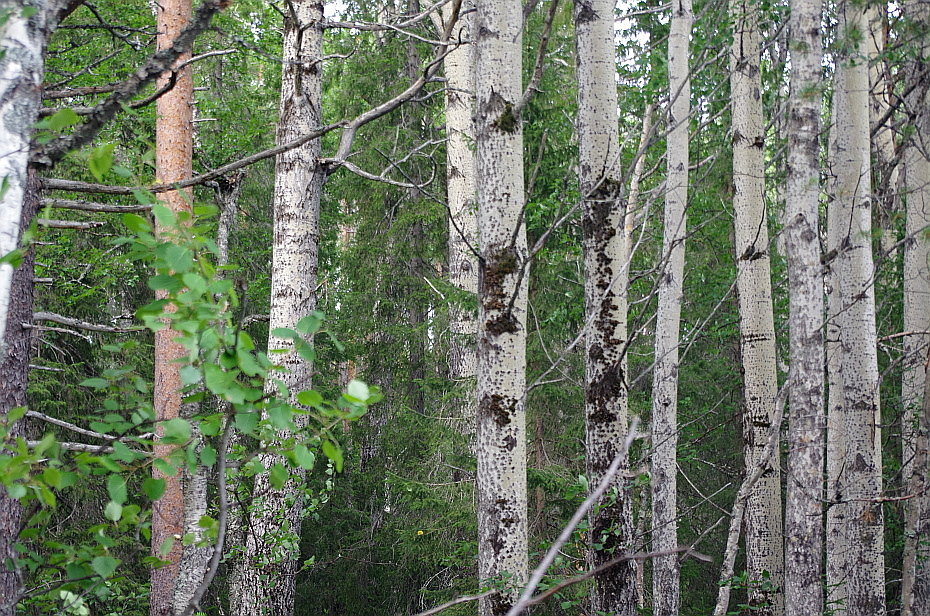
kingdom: Plantae
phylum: Tracheophyta
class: Magnoliopsida
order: Malpighiales
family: Salicaceae
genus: Populus
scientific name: Populus tremula
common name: European aspen
